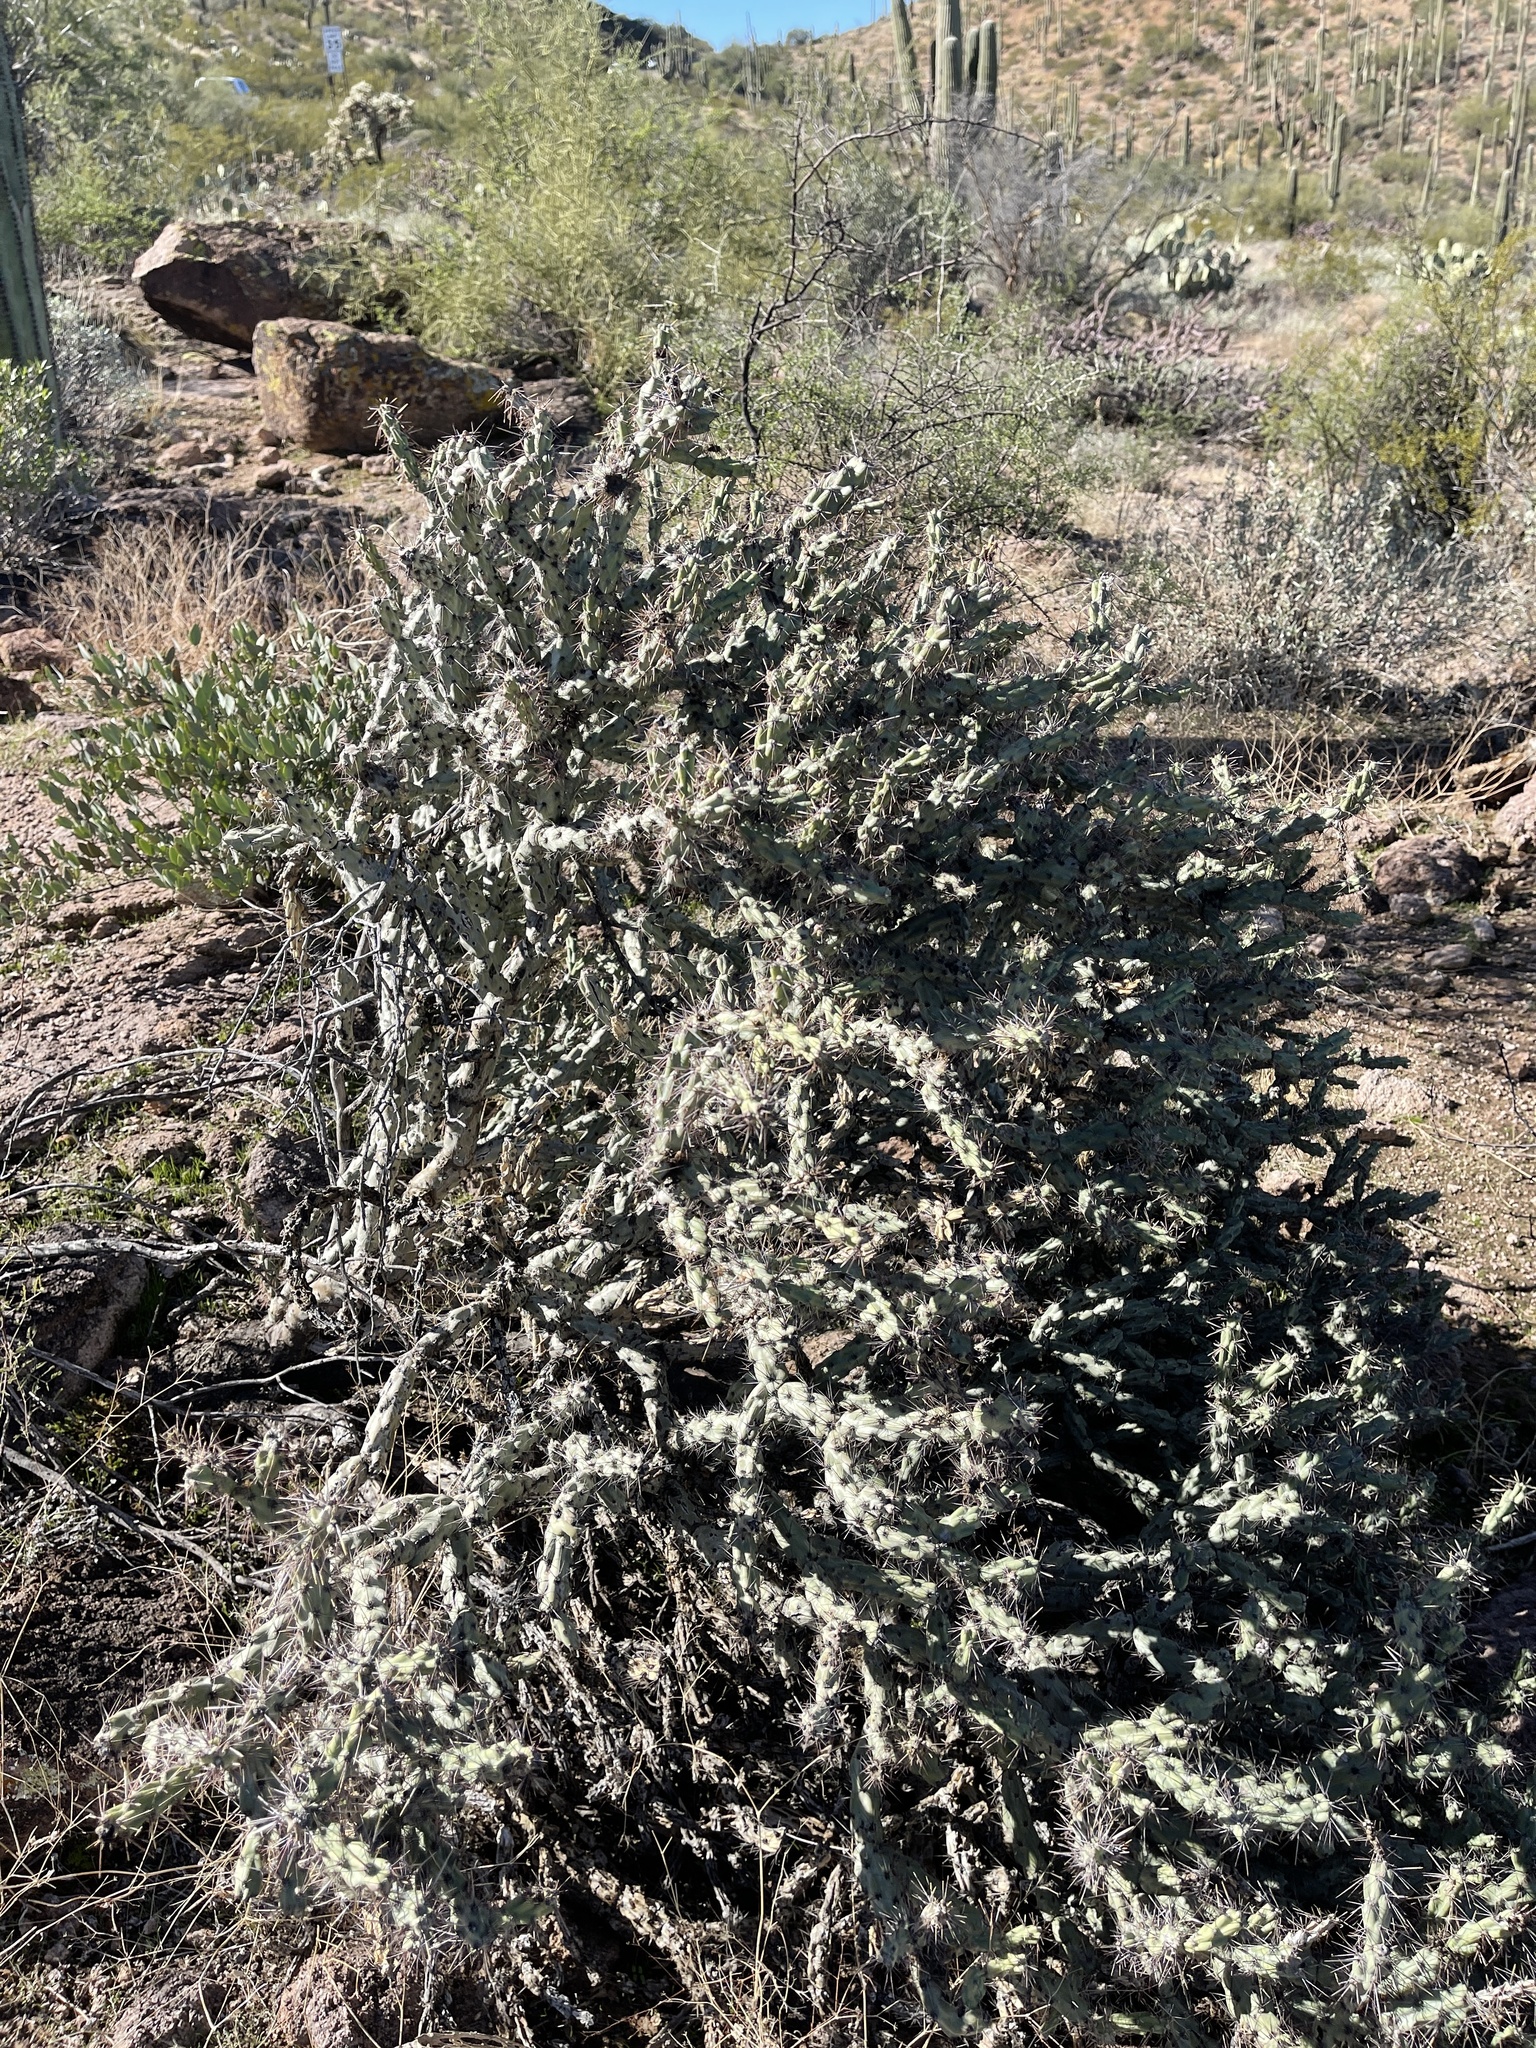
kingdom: Plantae
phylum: Tracheophyta
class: Magnoliopsida
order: Caryophyllales
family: Cactaceae
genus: Cylindropuntia
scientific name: Cylindropuntia acanthocarpa
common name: Buckhorn cholla
